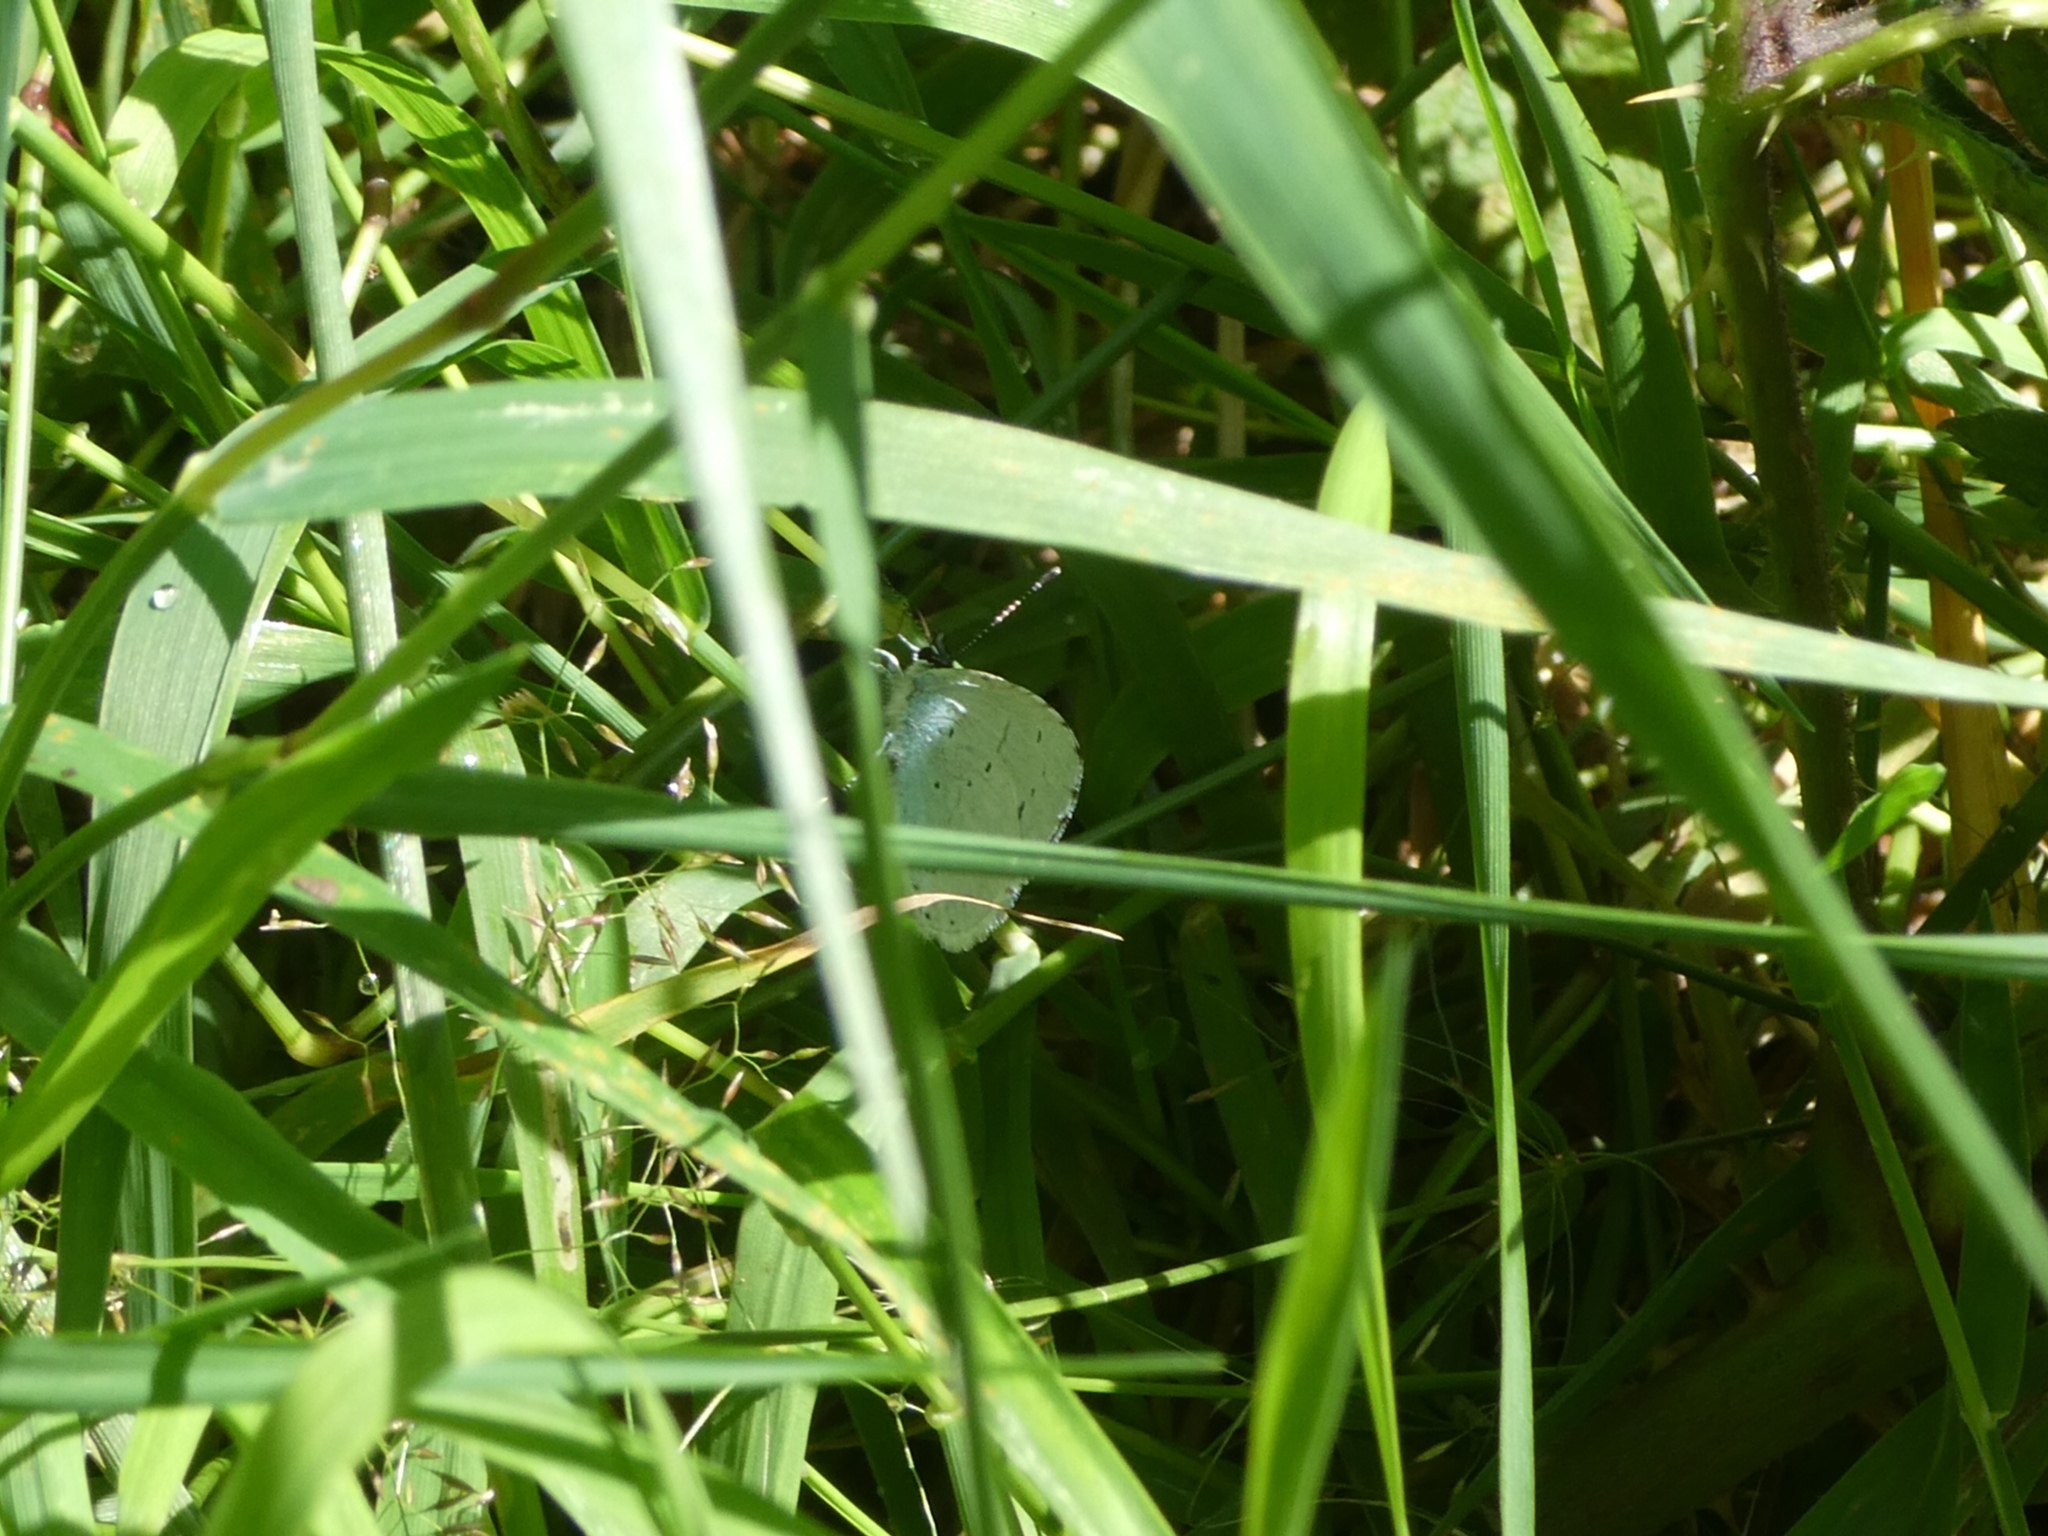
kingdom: Animalia
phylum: Arthropoda
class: Insecta
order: Lepidoptera
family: Lycaenidae
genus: Celastrina
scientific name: Celastrina argiolus
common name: Holly blue
